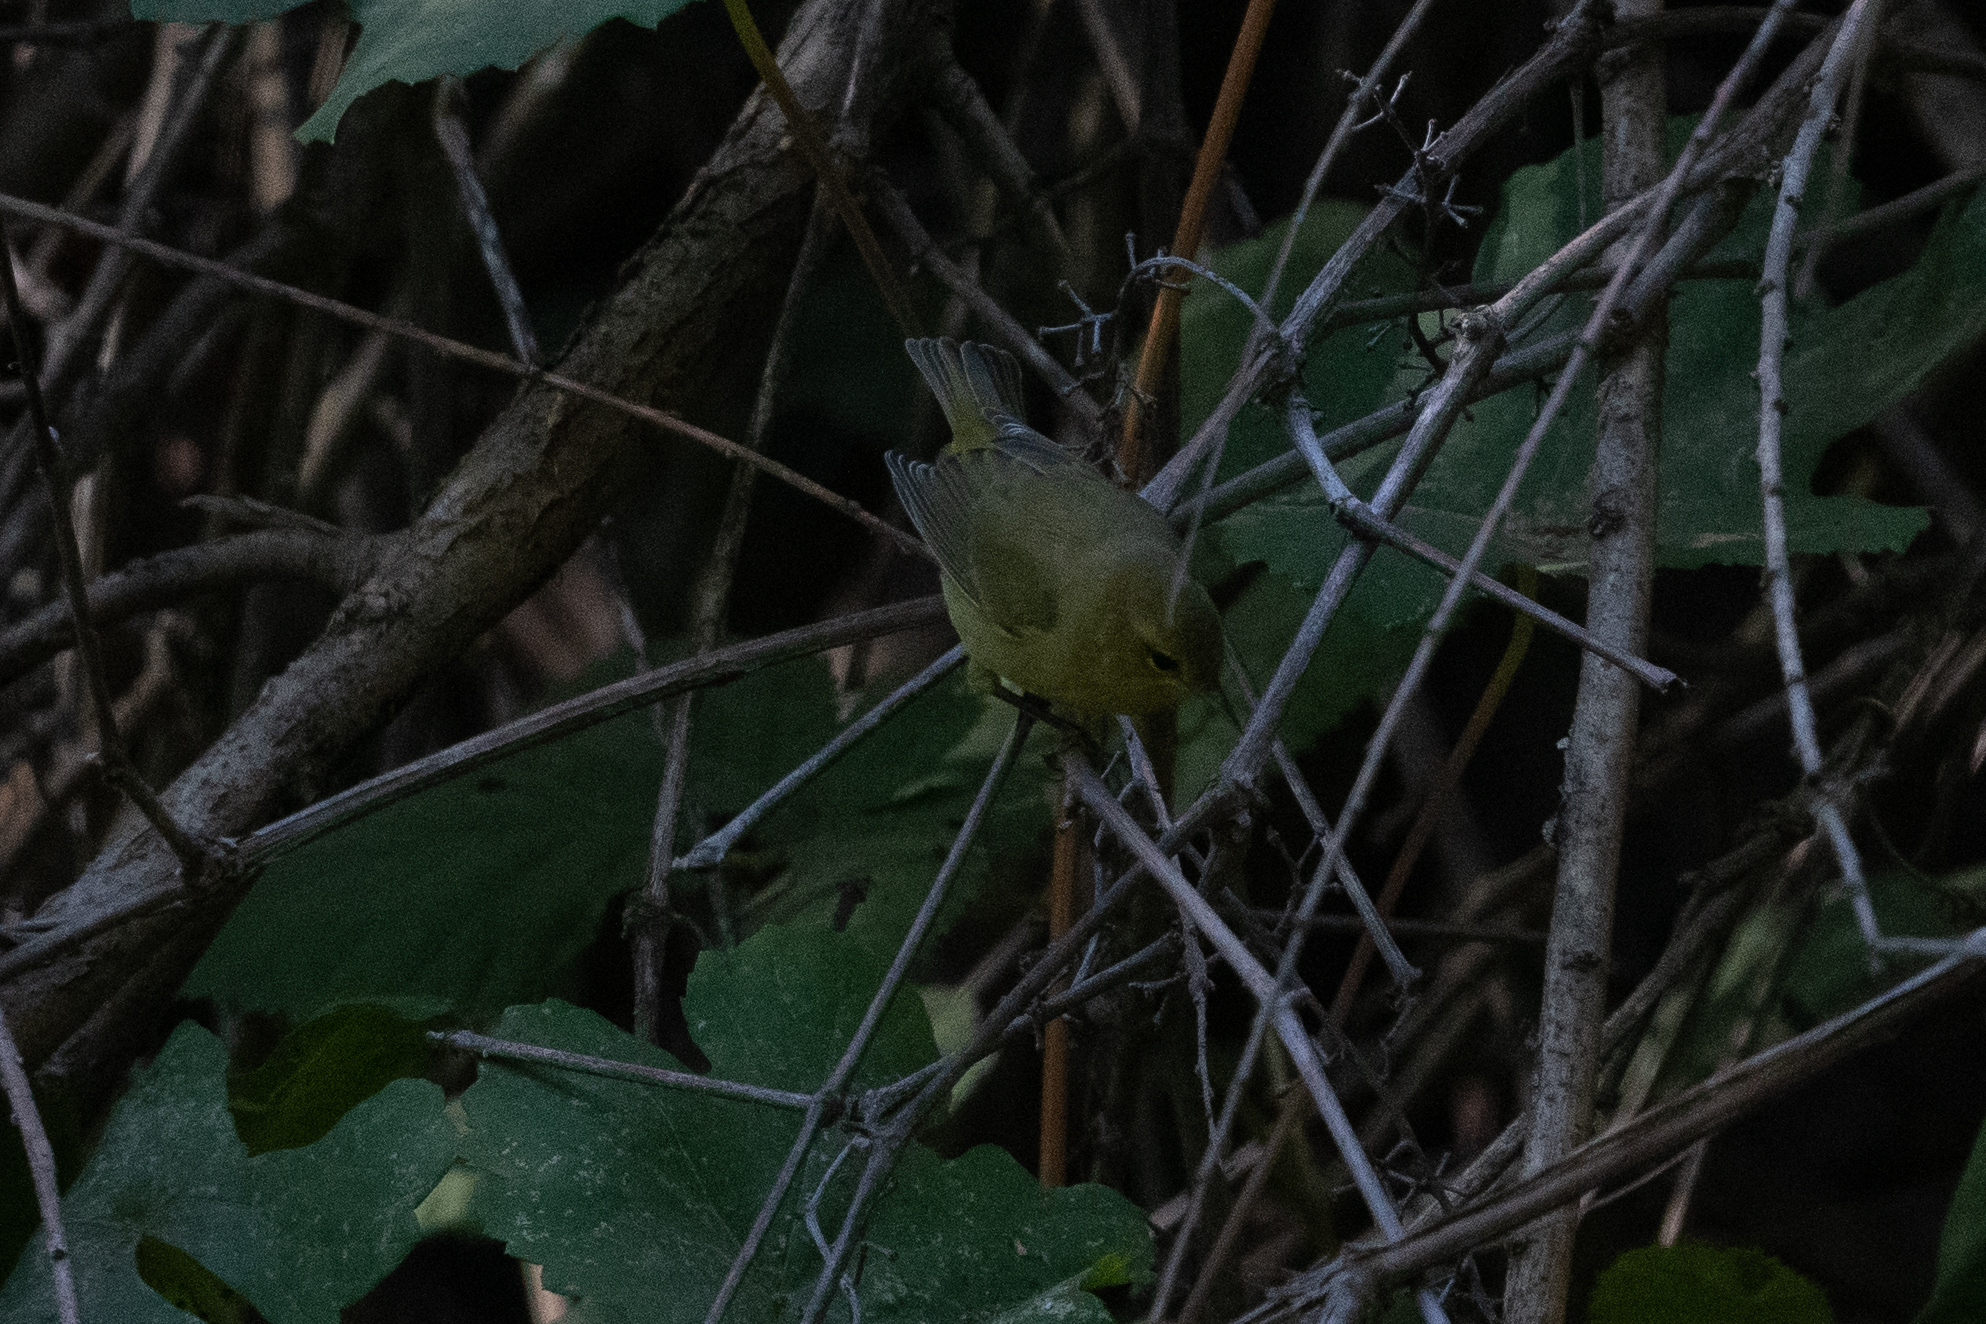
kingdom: Animalia
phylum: Chordata
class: Aves
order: Passeriformes
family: Parulidae
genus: Leiothlypis
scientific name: Leiothlypis celata
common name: Orange-crowned warbler
